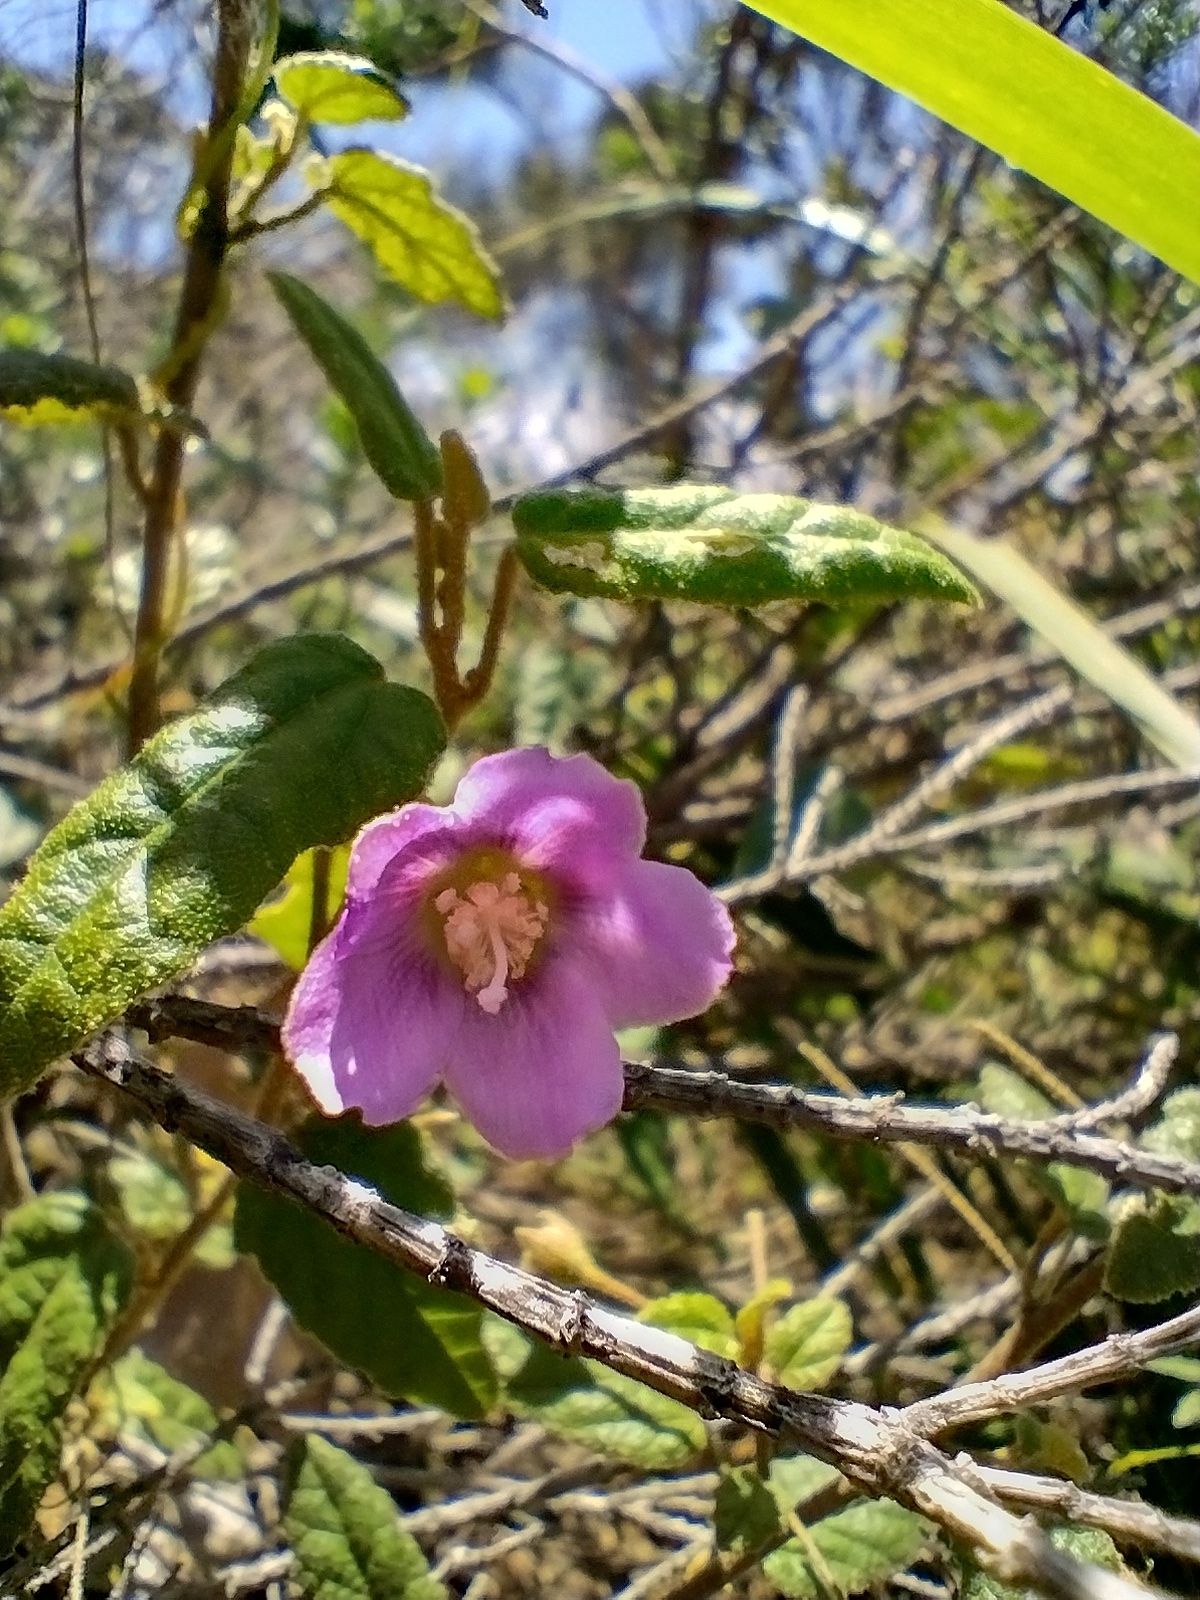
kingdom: Plantae
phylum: Tracheophyta
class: Magnoliopsida
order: Malvales
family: Malvaceae
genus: Howittia
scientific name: Howittia trilocularis
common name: Blue howittia
